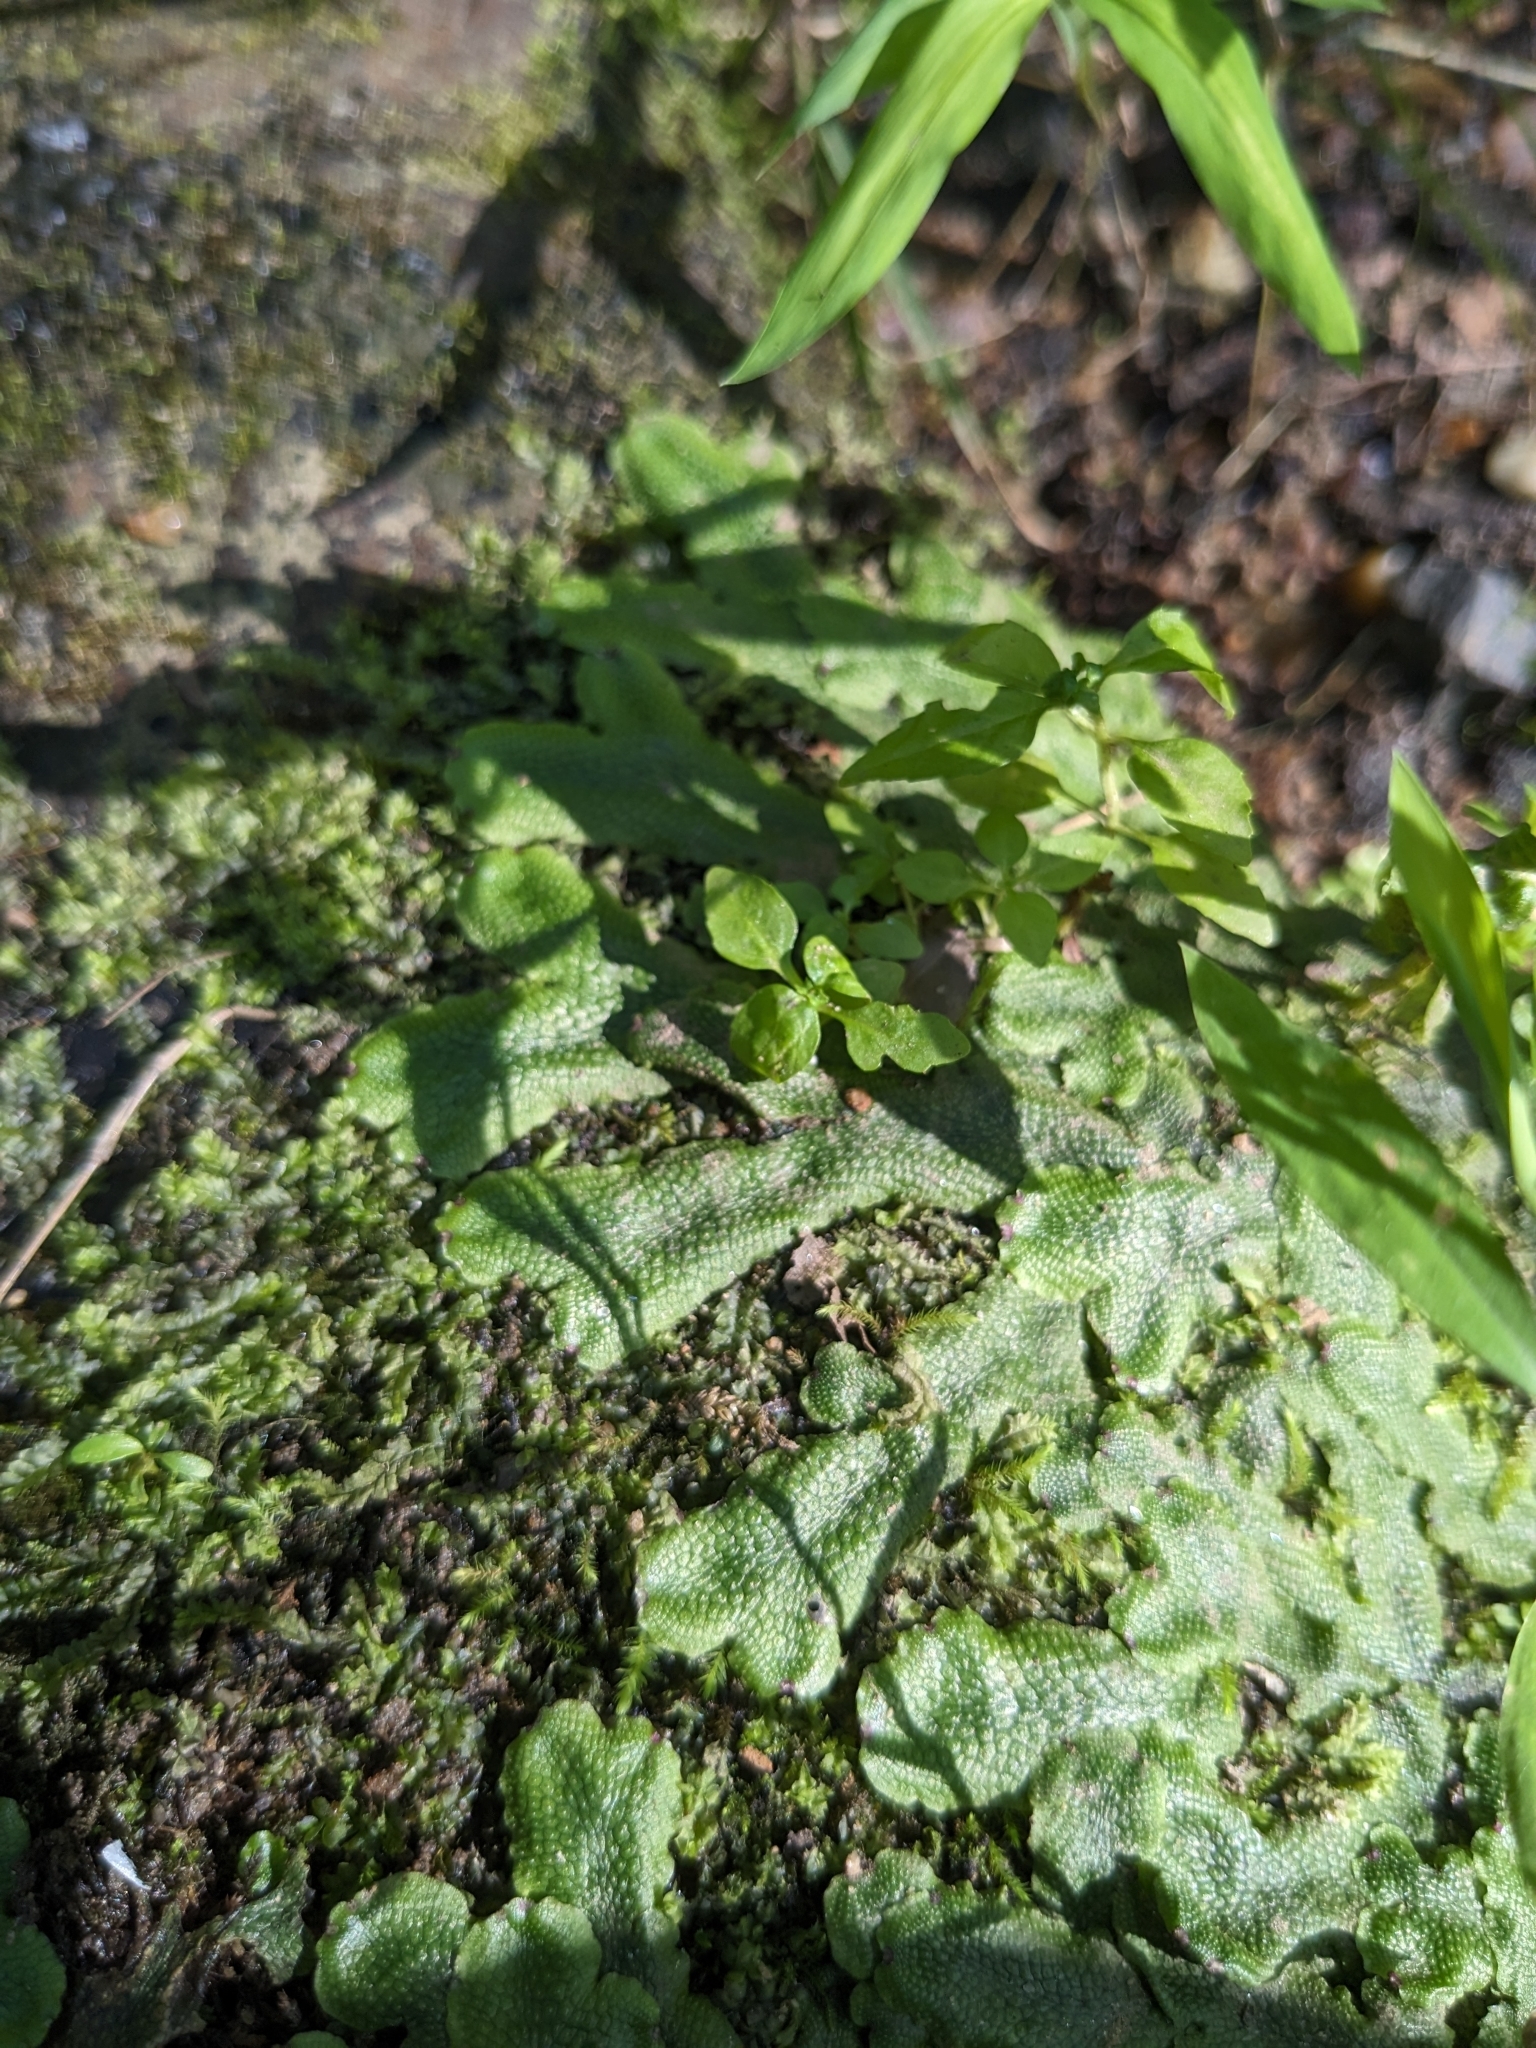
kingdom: Plantae
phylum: Marchantiophyta
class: Marchantiopsida
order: Marchantiales
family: Conocephalaceae
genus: Conocephalum
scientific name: Conocephalum salebrosum
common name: Cat-tongue liverwort
